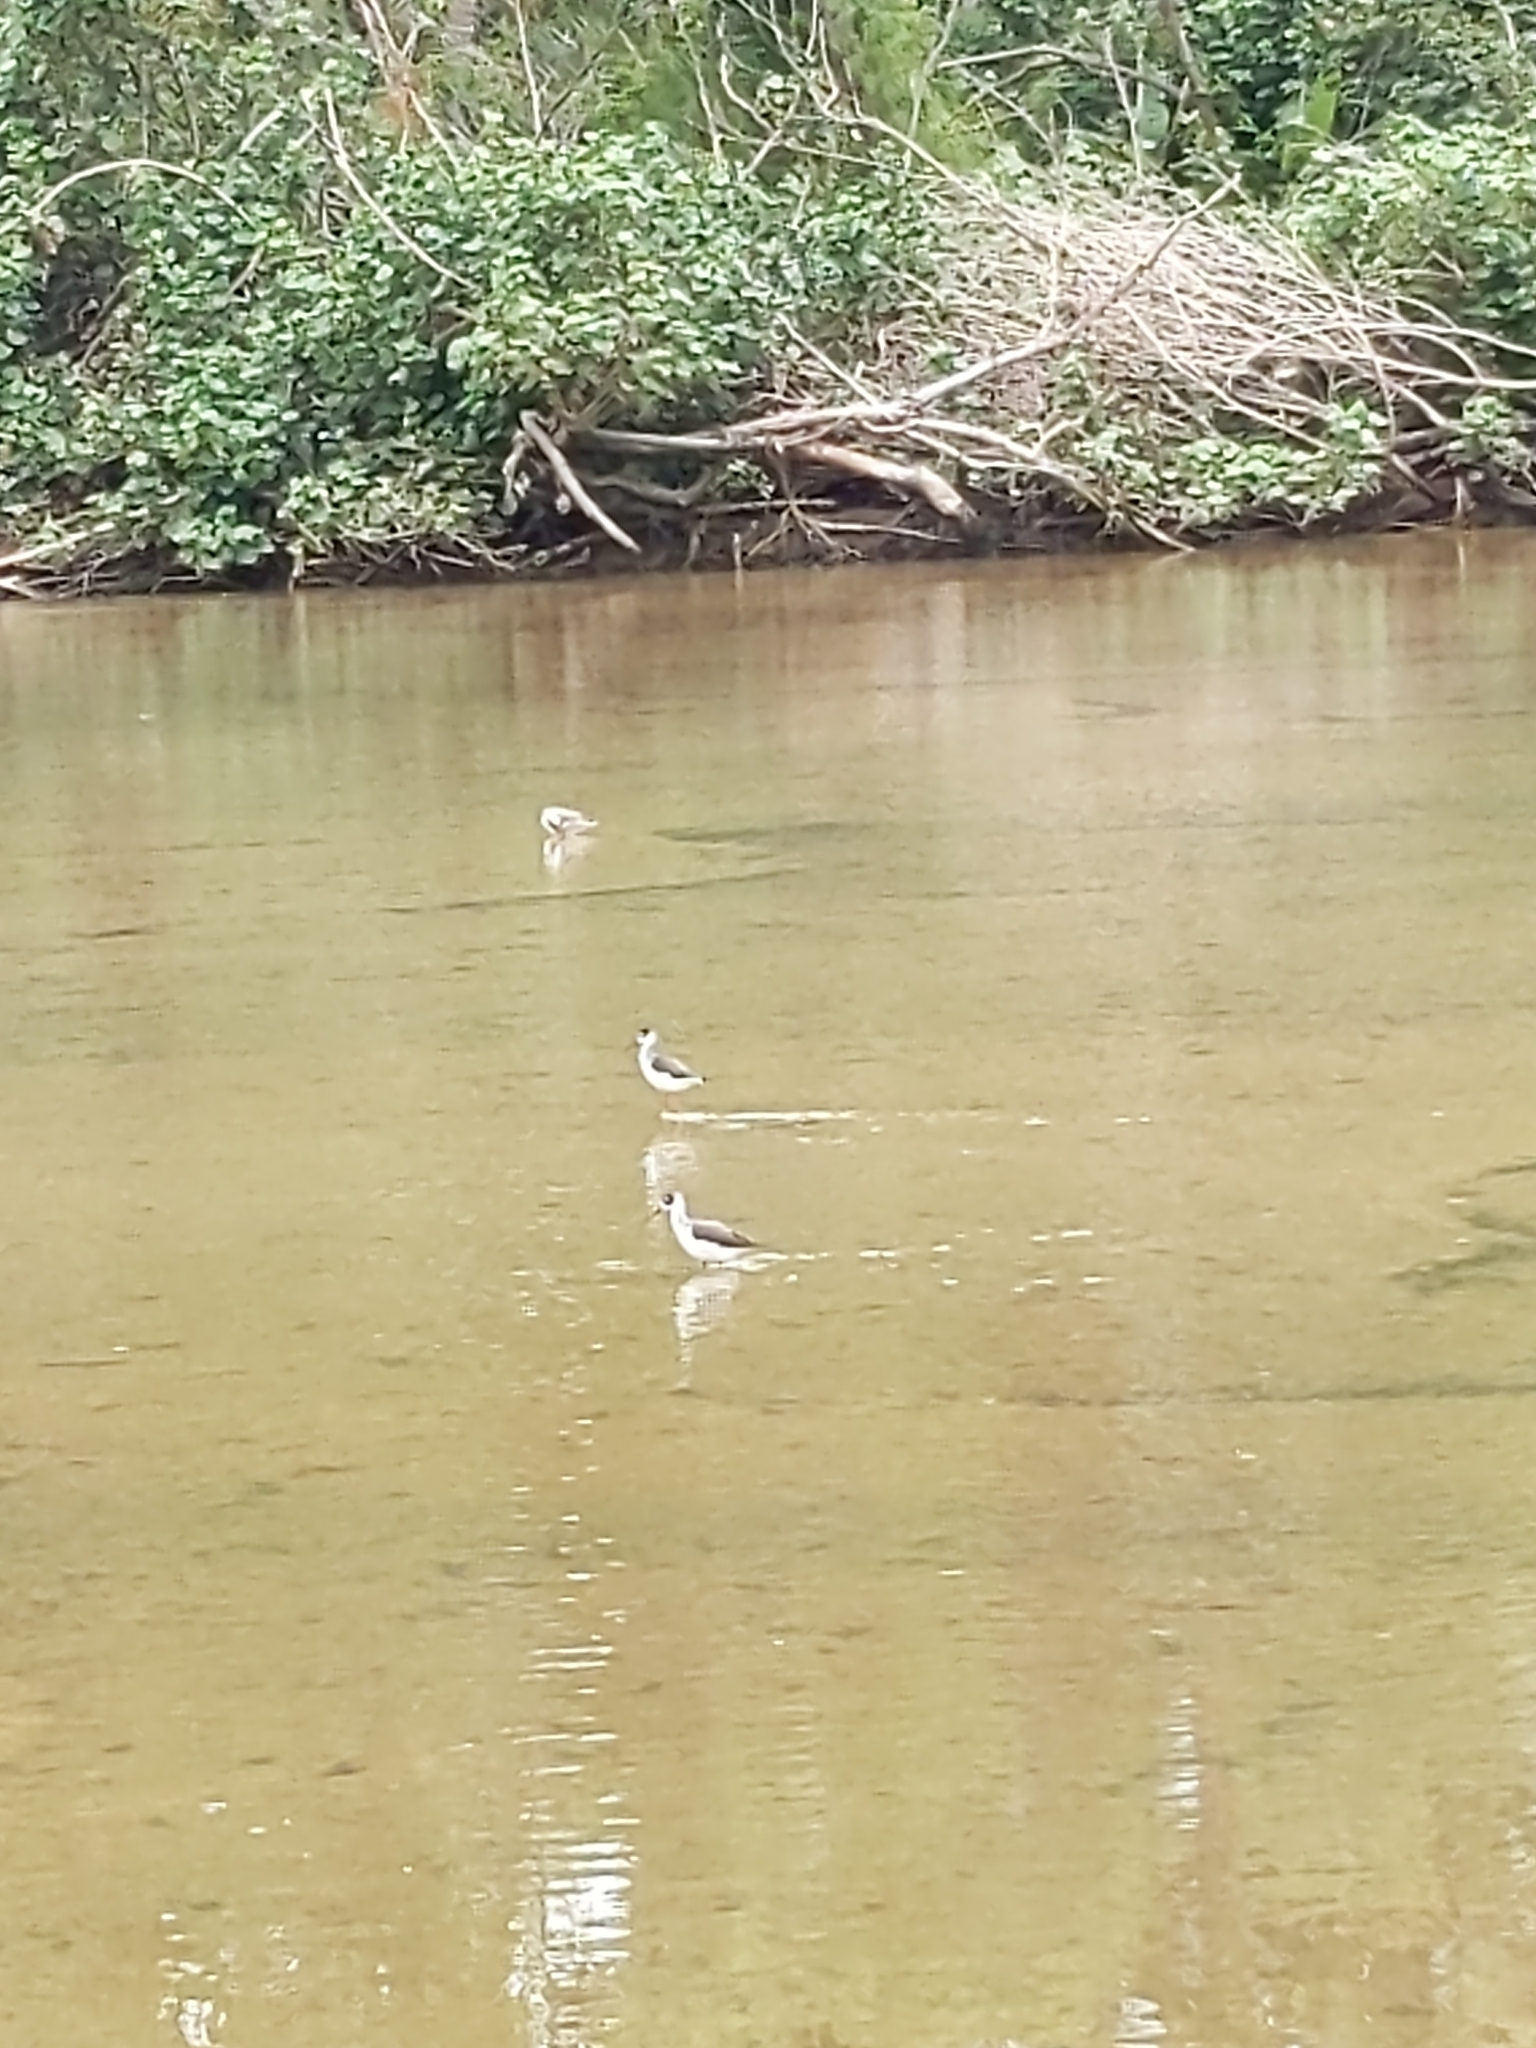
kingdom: Animalia
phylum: Chordata
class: Aves
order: Charadriiformes
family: Recurvirostridae
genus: Himantopus
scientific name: Himantopus mexicanus
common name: Black-necked stilt
